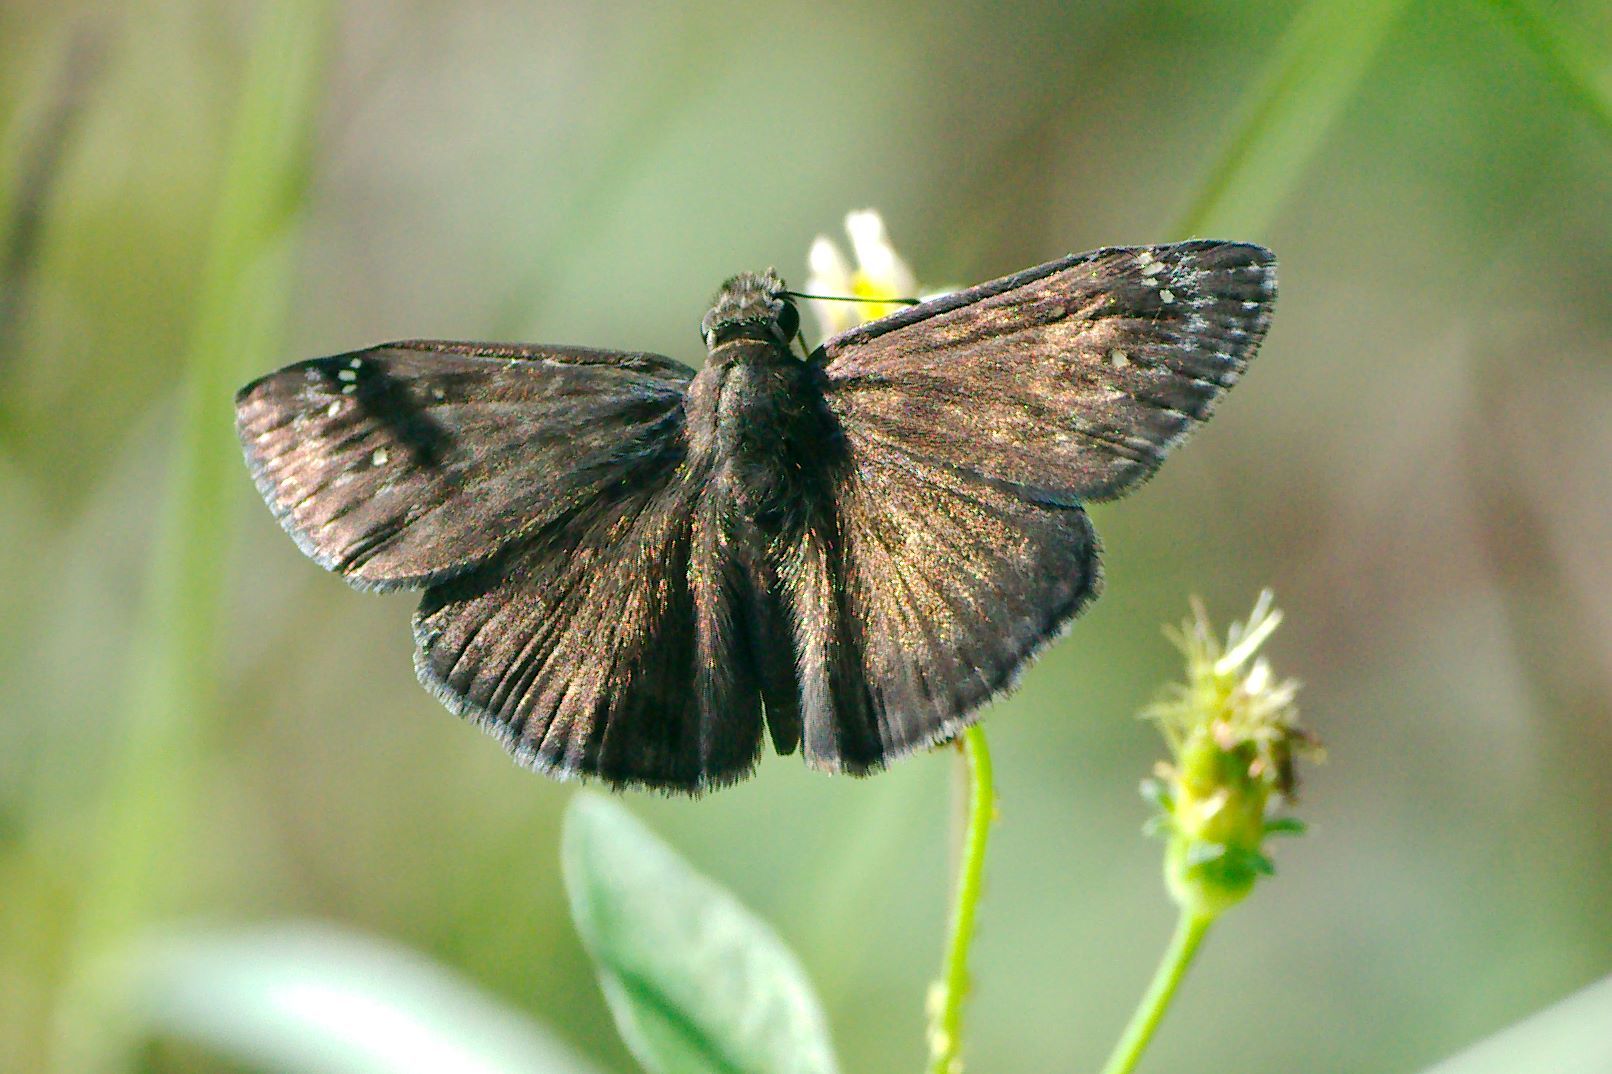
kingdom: Animalia
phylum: Arthropoda
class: Insecta
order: Lepidoptera
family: Hesperiidae
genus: Erynnis
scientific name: Erynnis horatius
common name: Horace's duskywing
